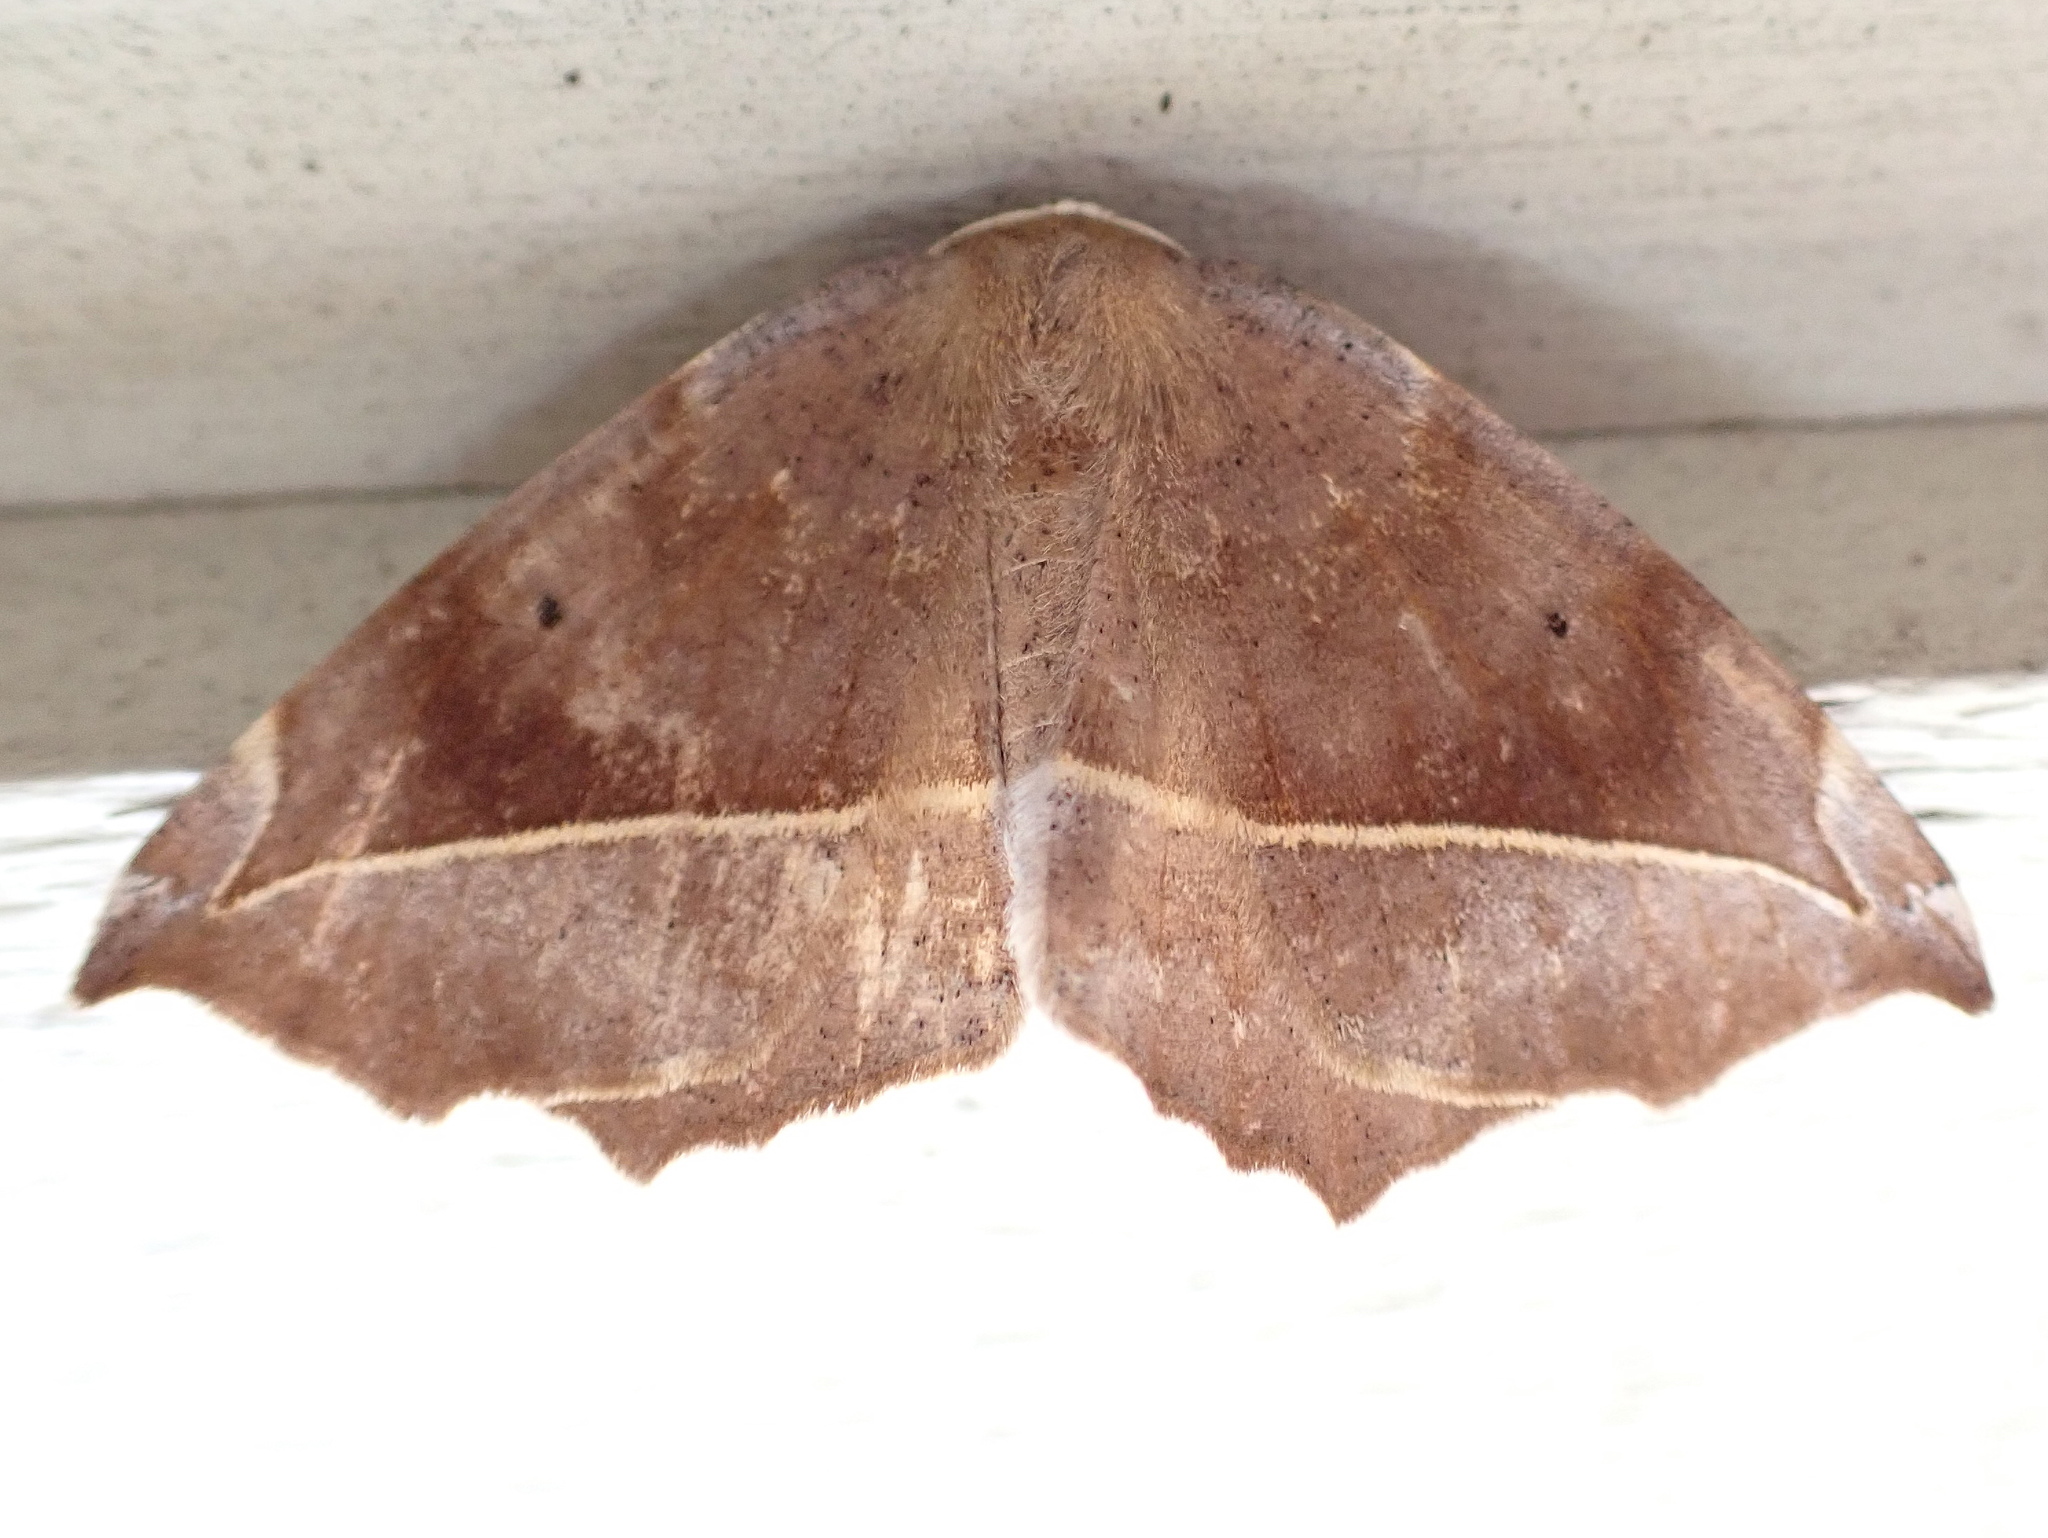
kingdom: Animalia
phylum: Arthropoda
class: Insecta
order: Lepidoptera
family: Geometridae
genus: Eutrapela
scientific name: Eutrapela clemataria
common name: Curved-toothed geometer
